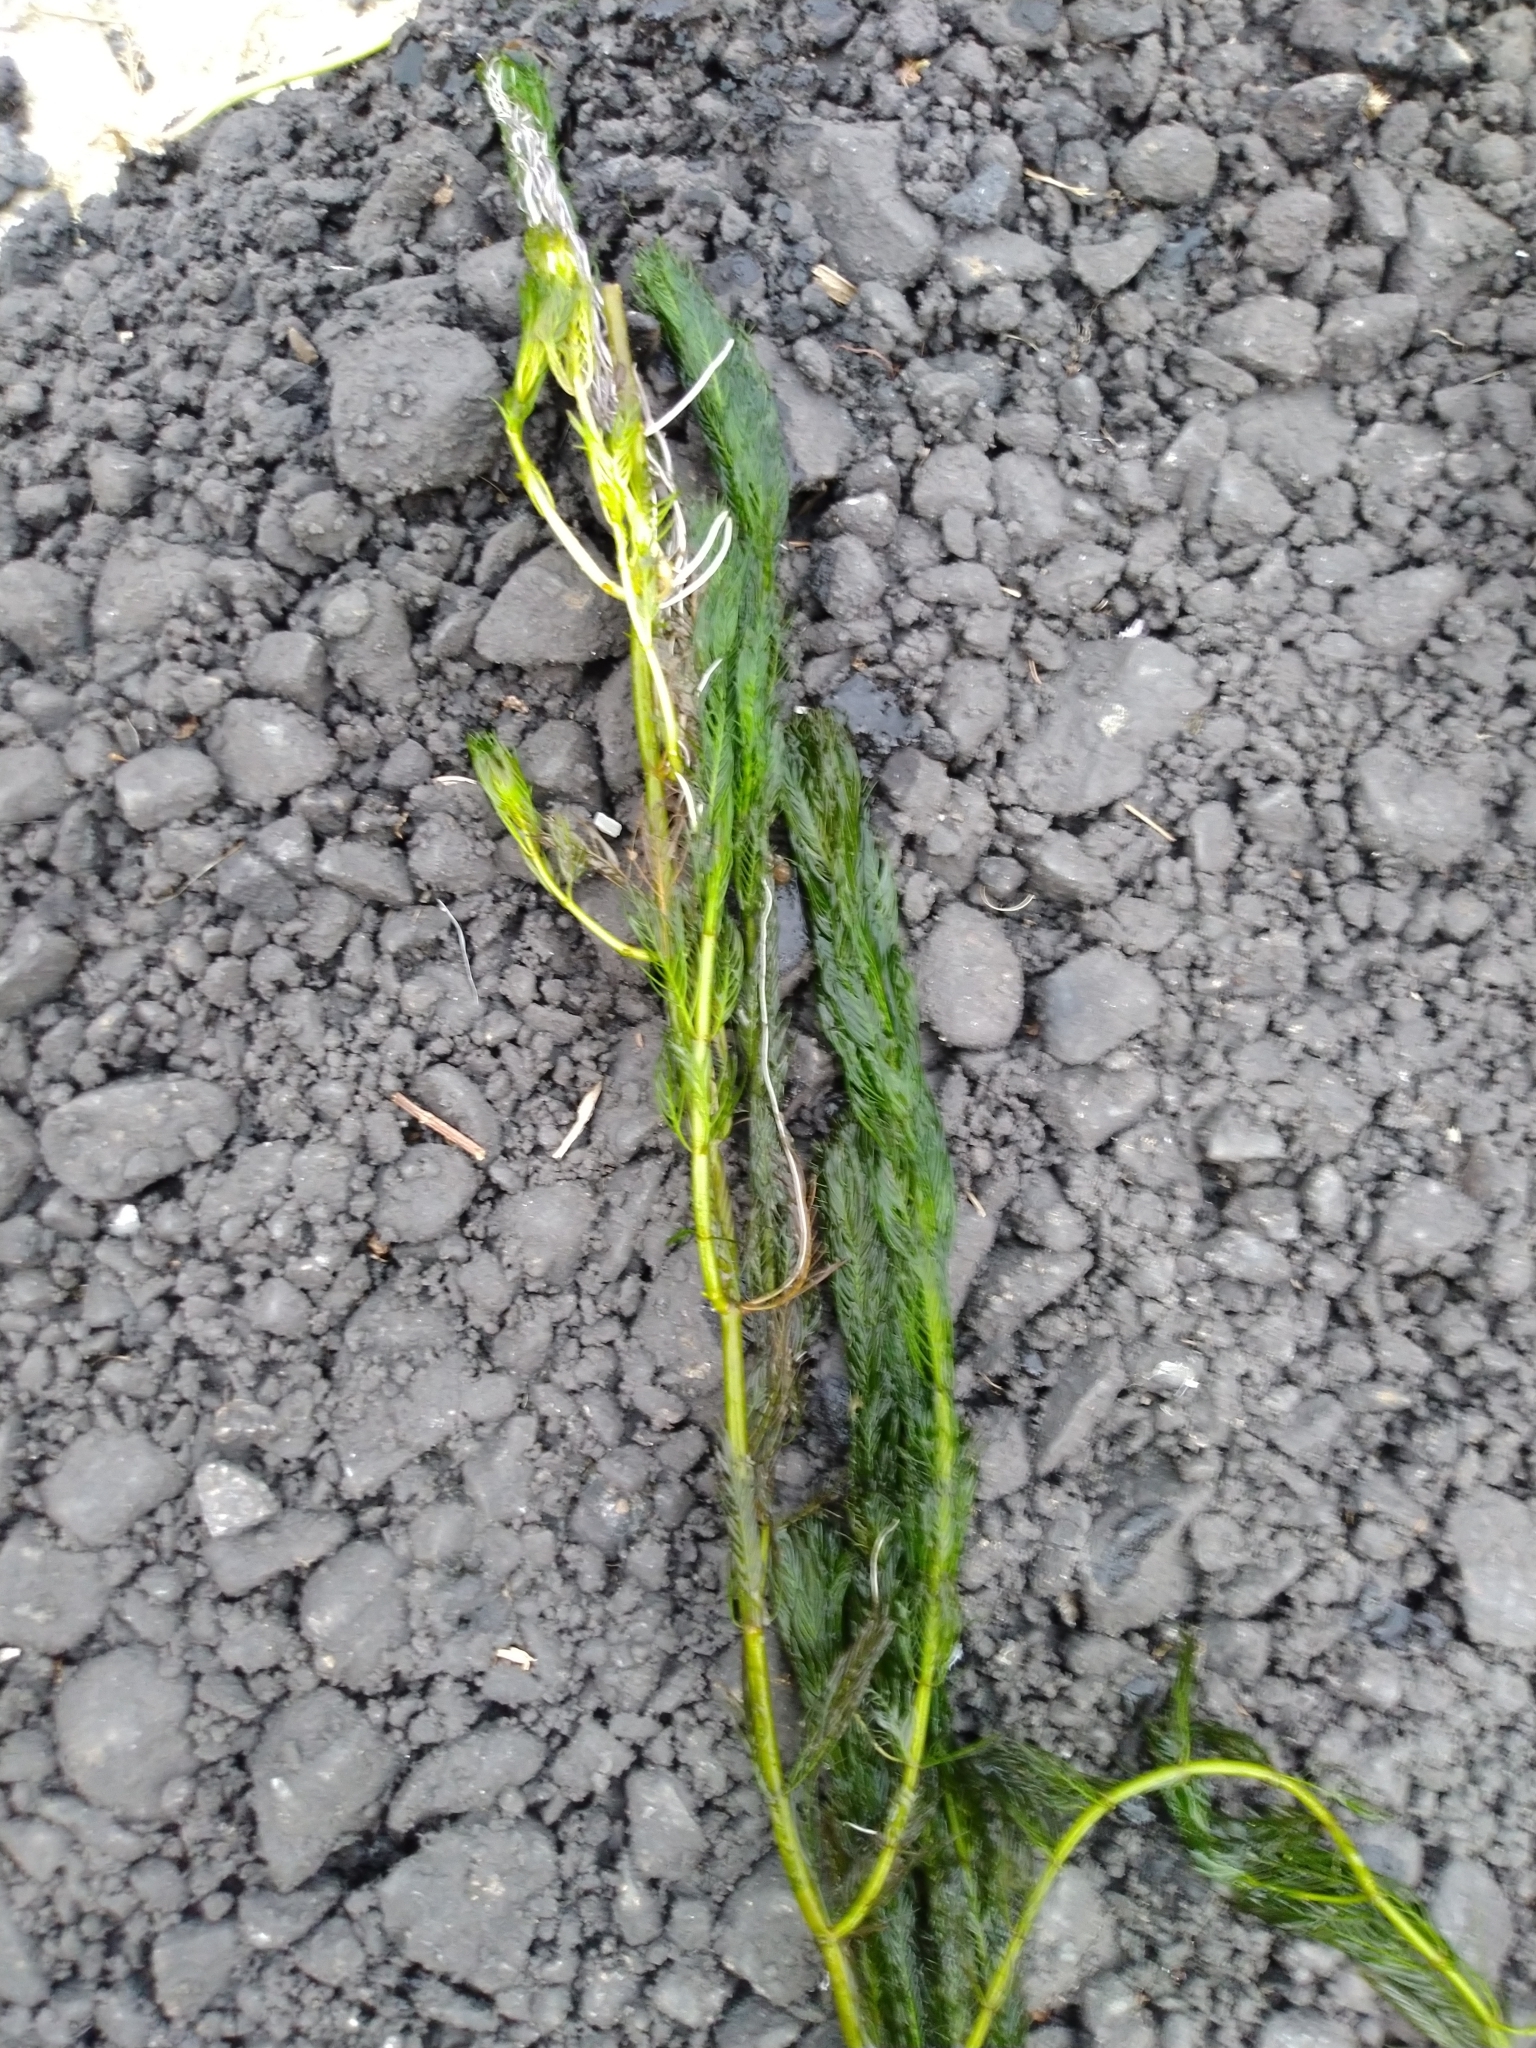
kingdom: Plantae
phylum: Tracheophyta
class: Magnoliopsida
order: Saxifragales
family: Haloragaceae
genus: Myriophyllum
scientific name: Myriophyllum spicatum
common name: Spiked water-milfoil
